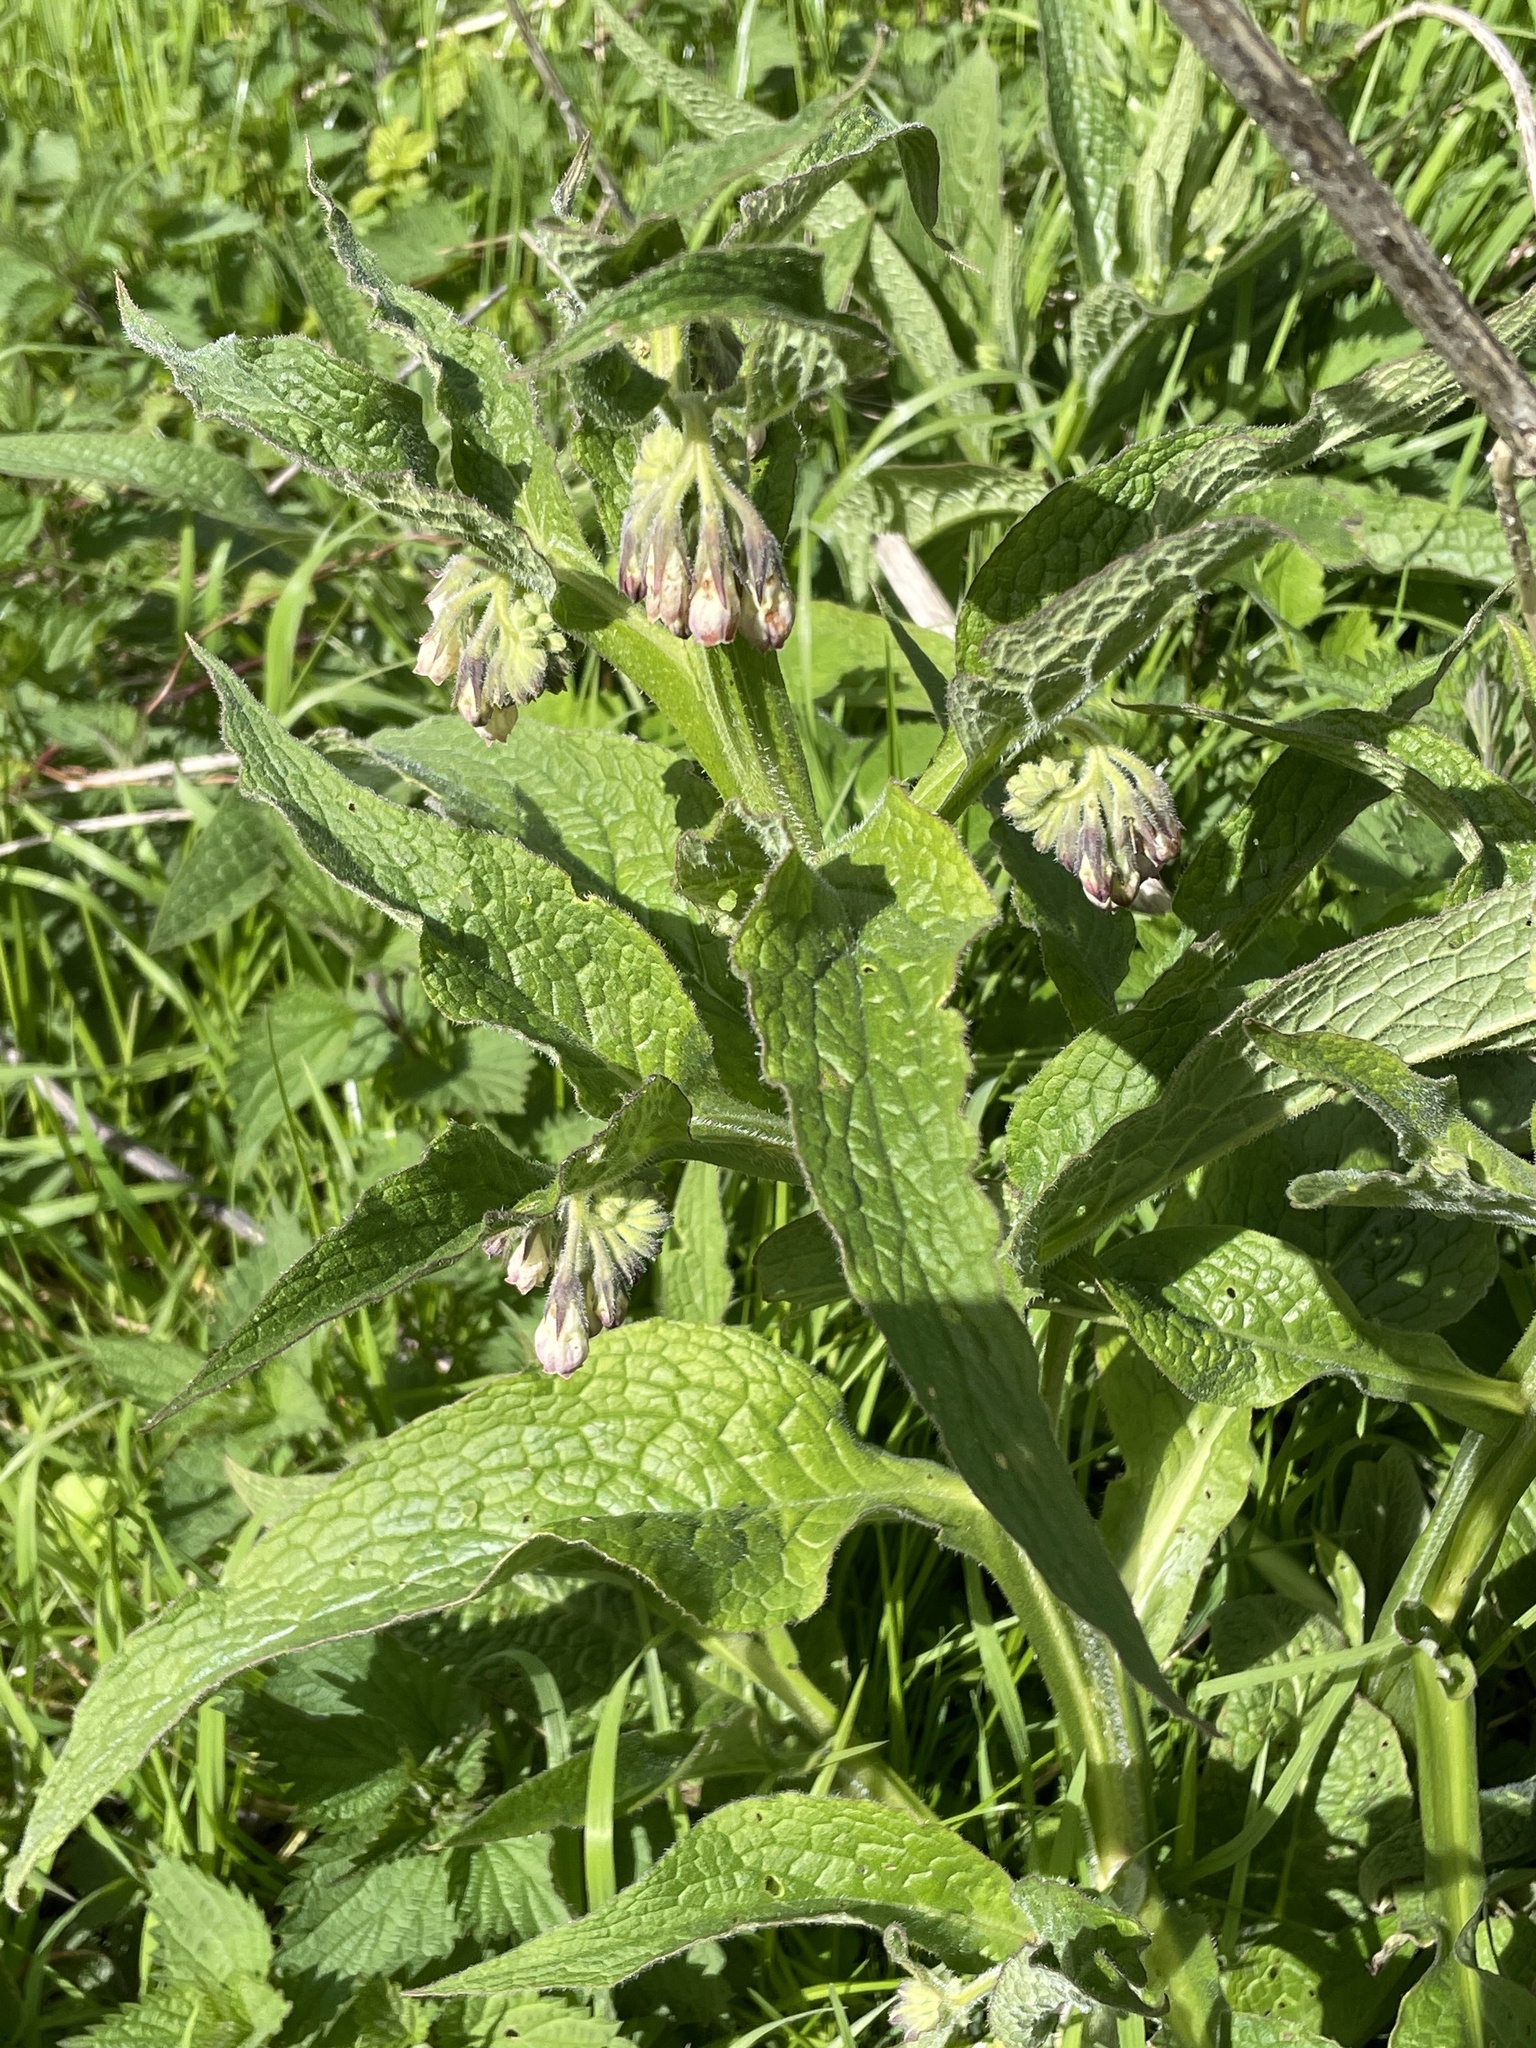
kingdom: Plantae
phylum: Tracheophyta
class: Magnoliopsida
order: Boraginales
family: Boraginaceae
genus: Symphytum
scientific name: Symphytum officinale
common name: Common comfrey
